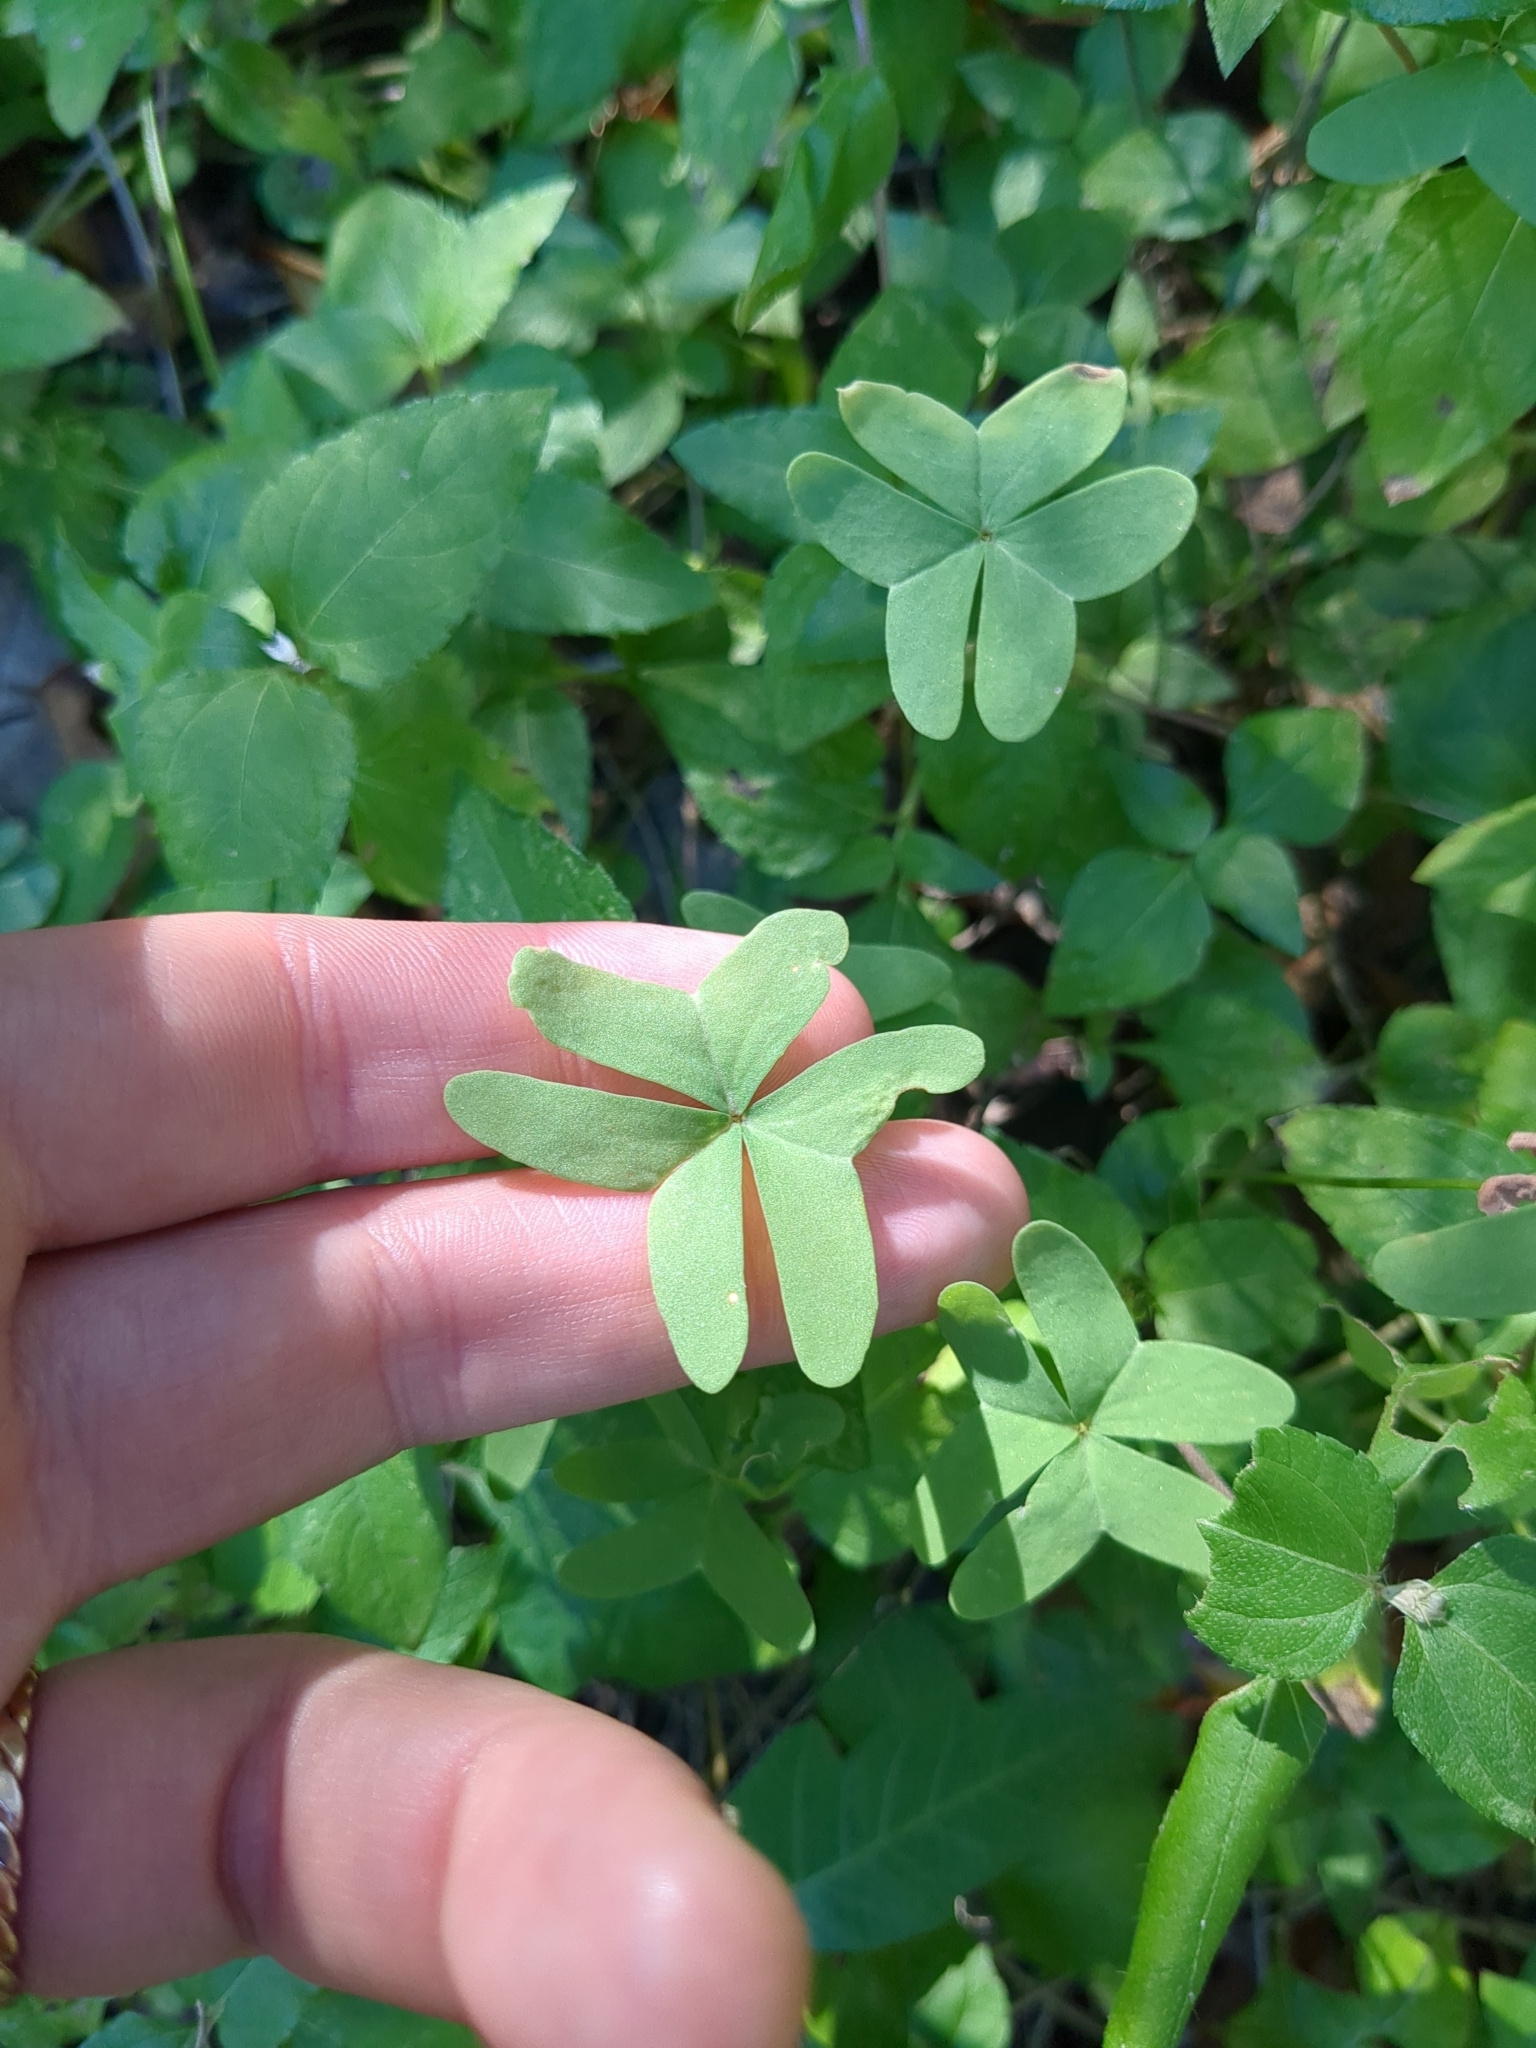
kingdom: Plantae
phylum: Tracheophyta
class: Magnoliopsida
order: Oxalidales
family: Oxalidaceae
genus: Oxalis
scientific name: Oxalis drummondii
